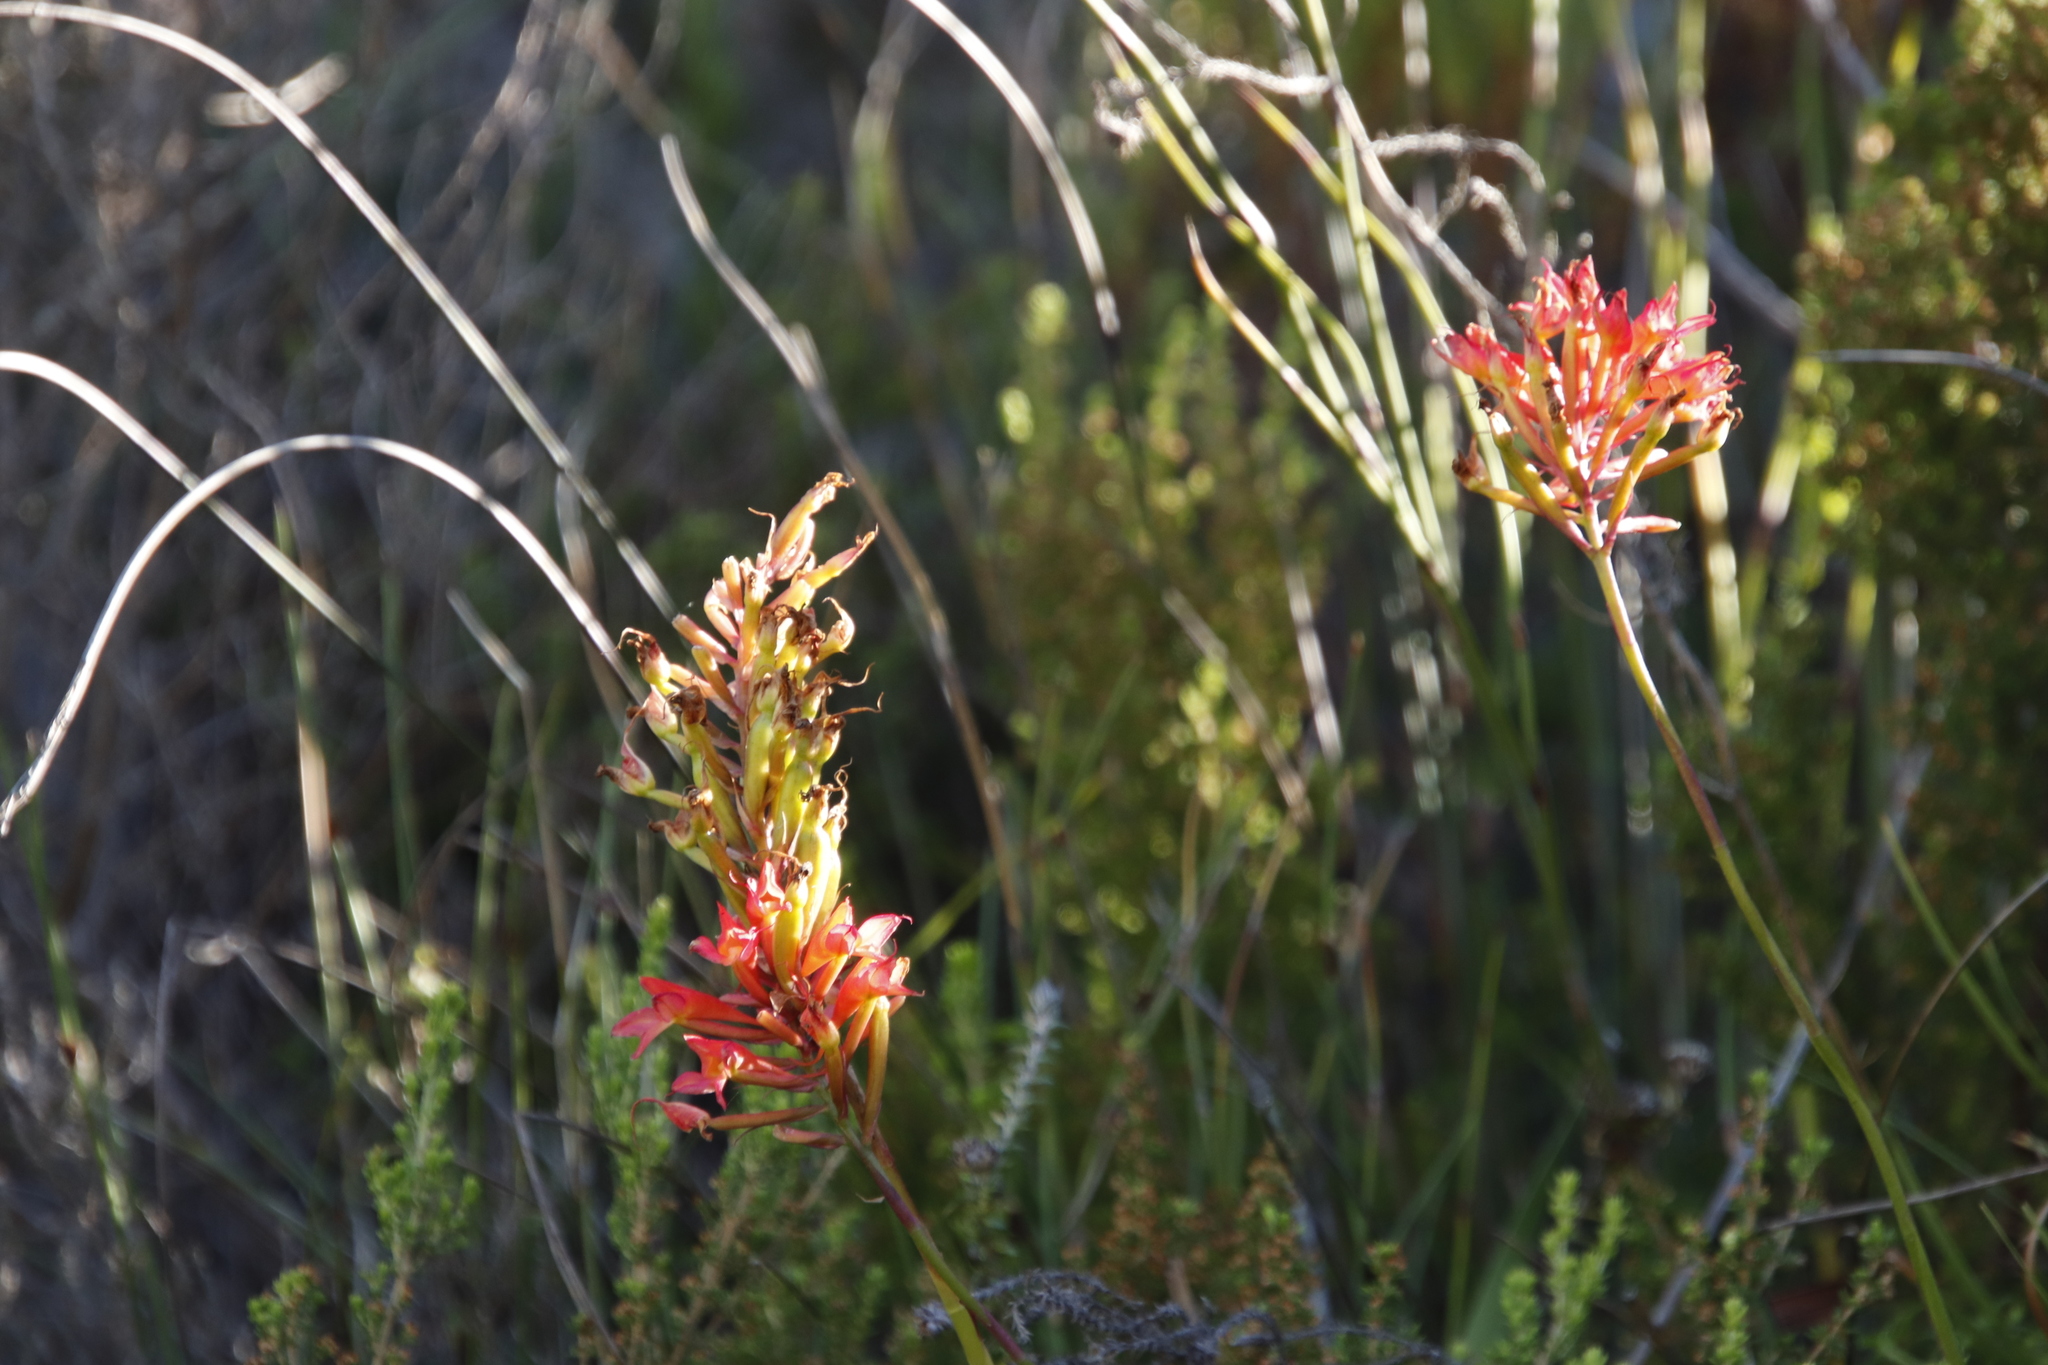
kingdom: Plantae
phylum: Tracheophyta
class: Liliopsida
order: Asparagales
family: Orchidaceae
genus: Disa
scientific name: Disa ferruginea
